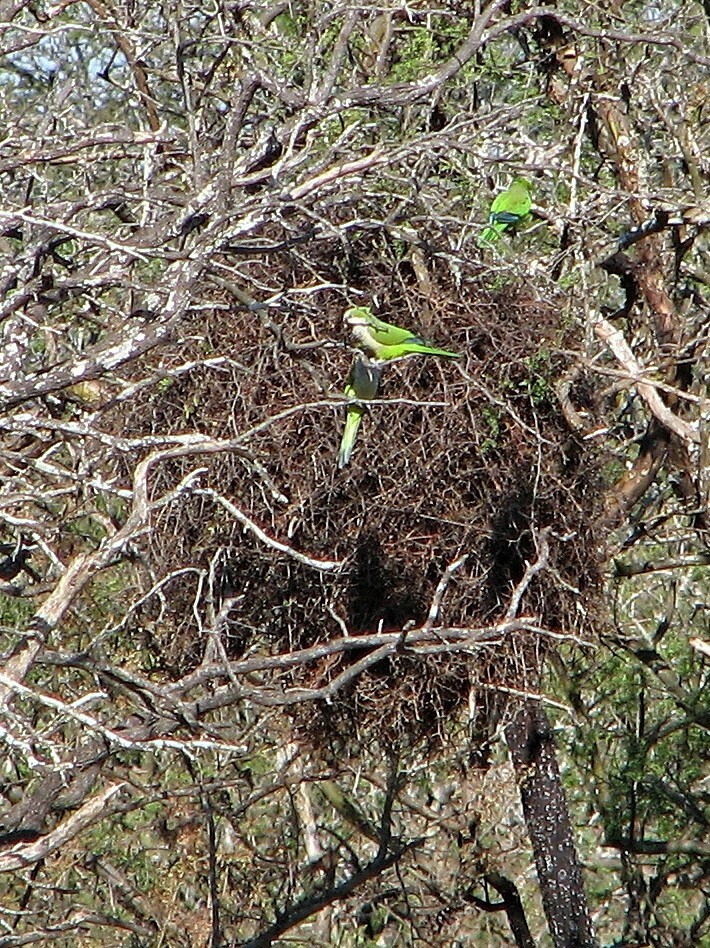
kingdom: Animalia
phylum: Chordata
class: Aves
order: Psittaciformes
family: Psittacidae
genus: Myiopsitta
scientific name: Myiopsitta monachus
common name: Monk parakeet
